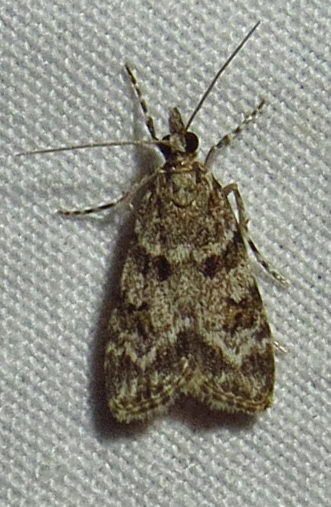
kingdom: Animalia
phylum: Arthropoda
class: Insecta
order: Lepidoptera
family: Crambidae
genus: Scoparia
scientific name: Scoparia biplagialis
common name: Double-striped scoparia moth
